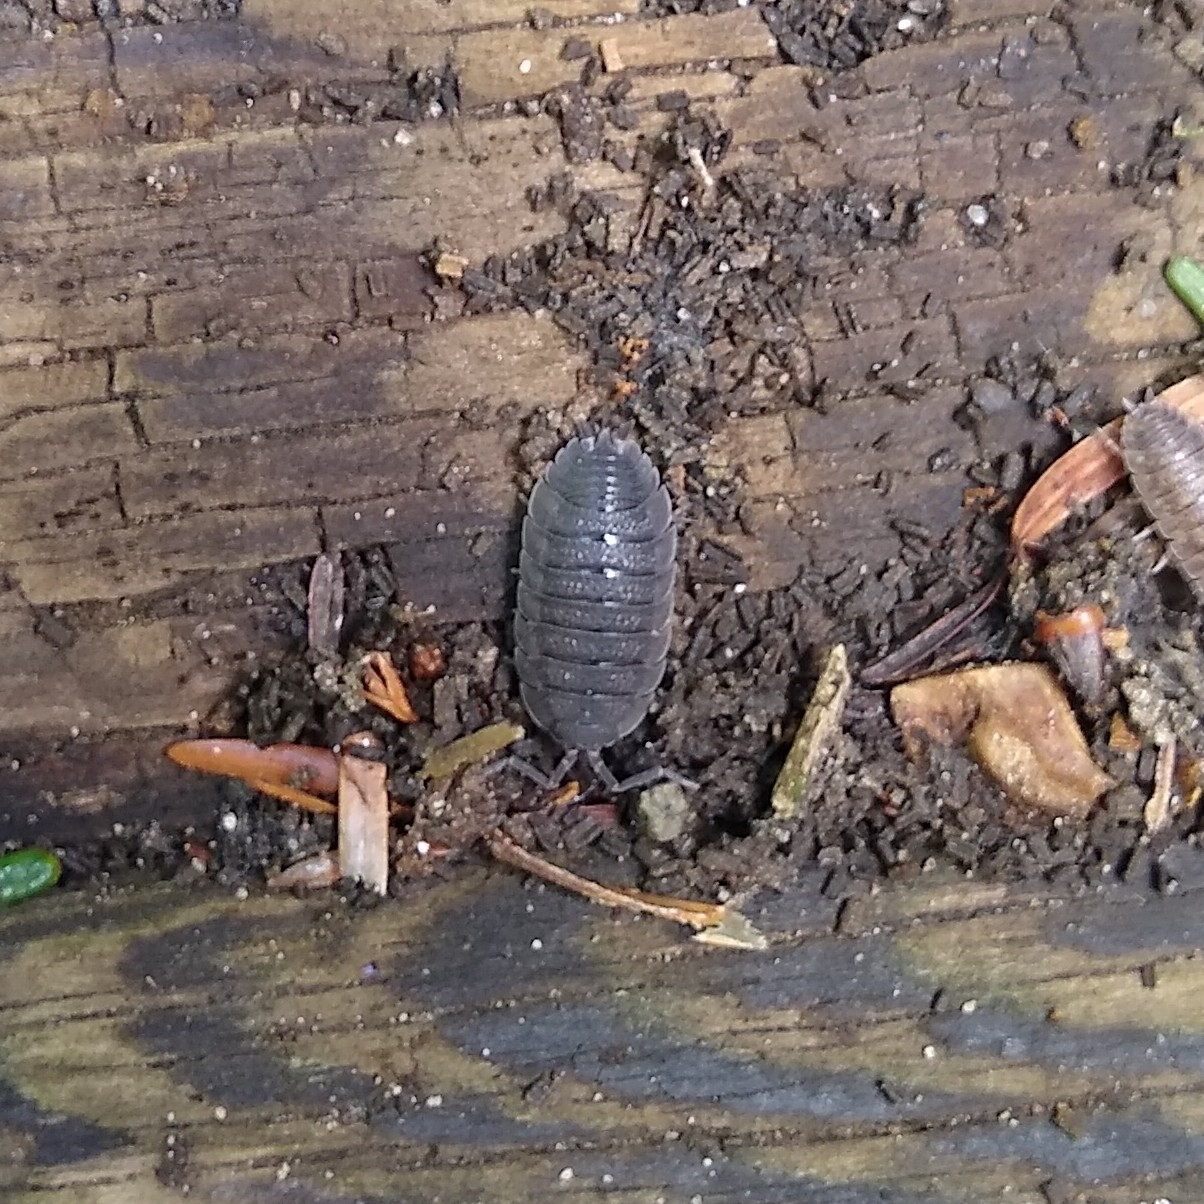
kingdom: Animalia
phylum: Arthropoda
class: Malacostraca
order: Isopoda
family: Porcellionidae
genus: Porcellio
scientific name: Porcellio scaber
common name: Common rough woodlouse
